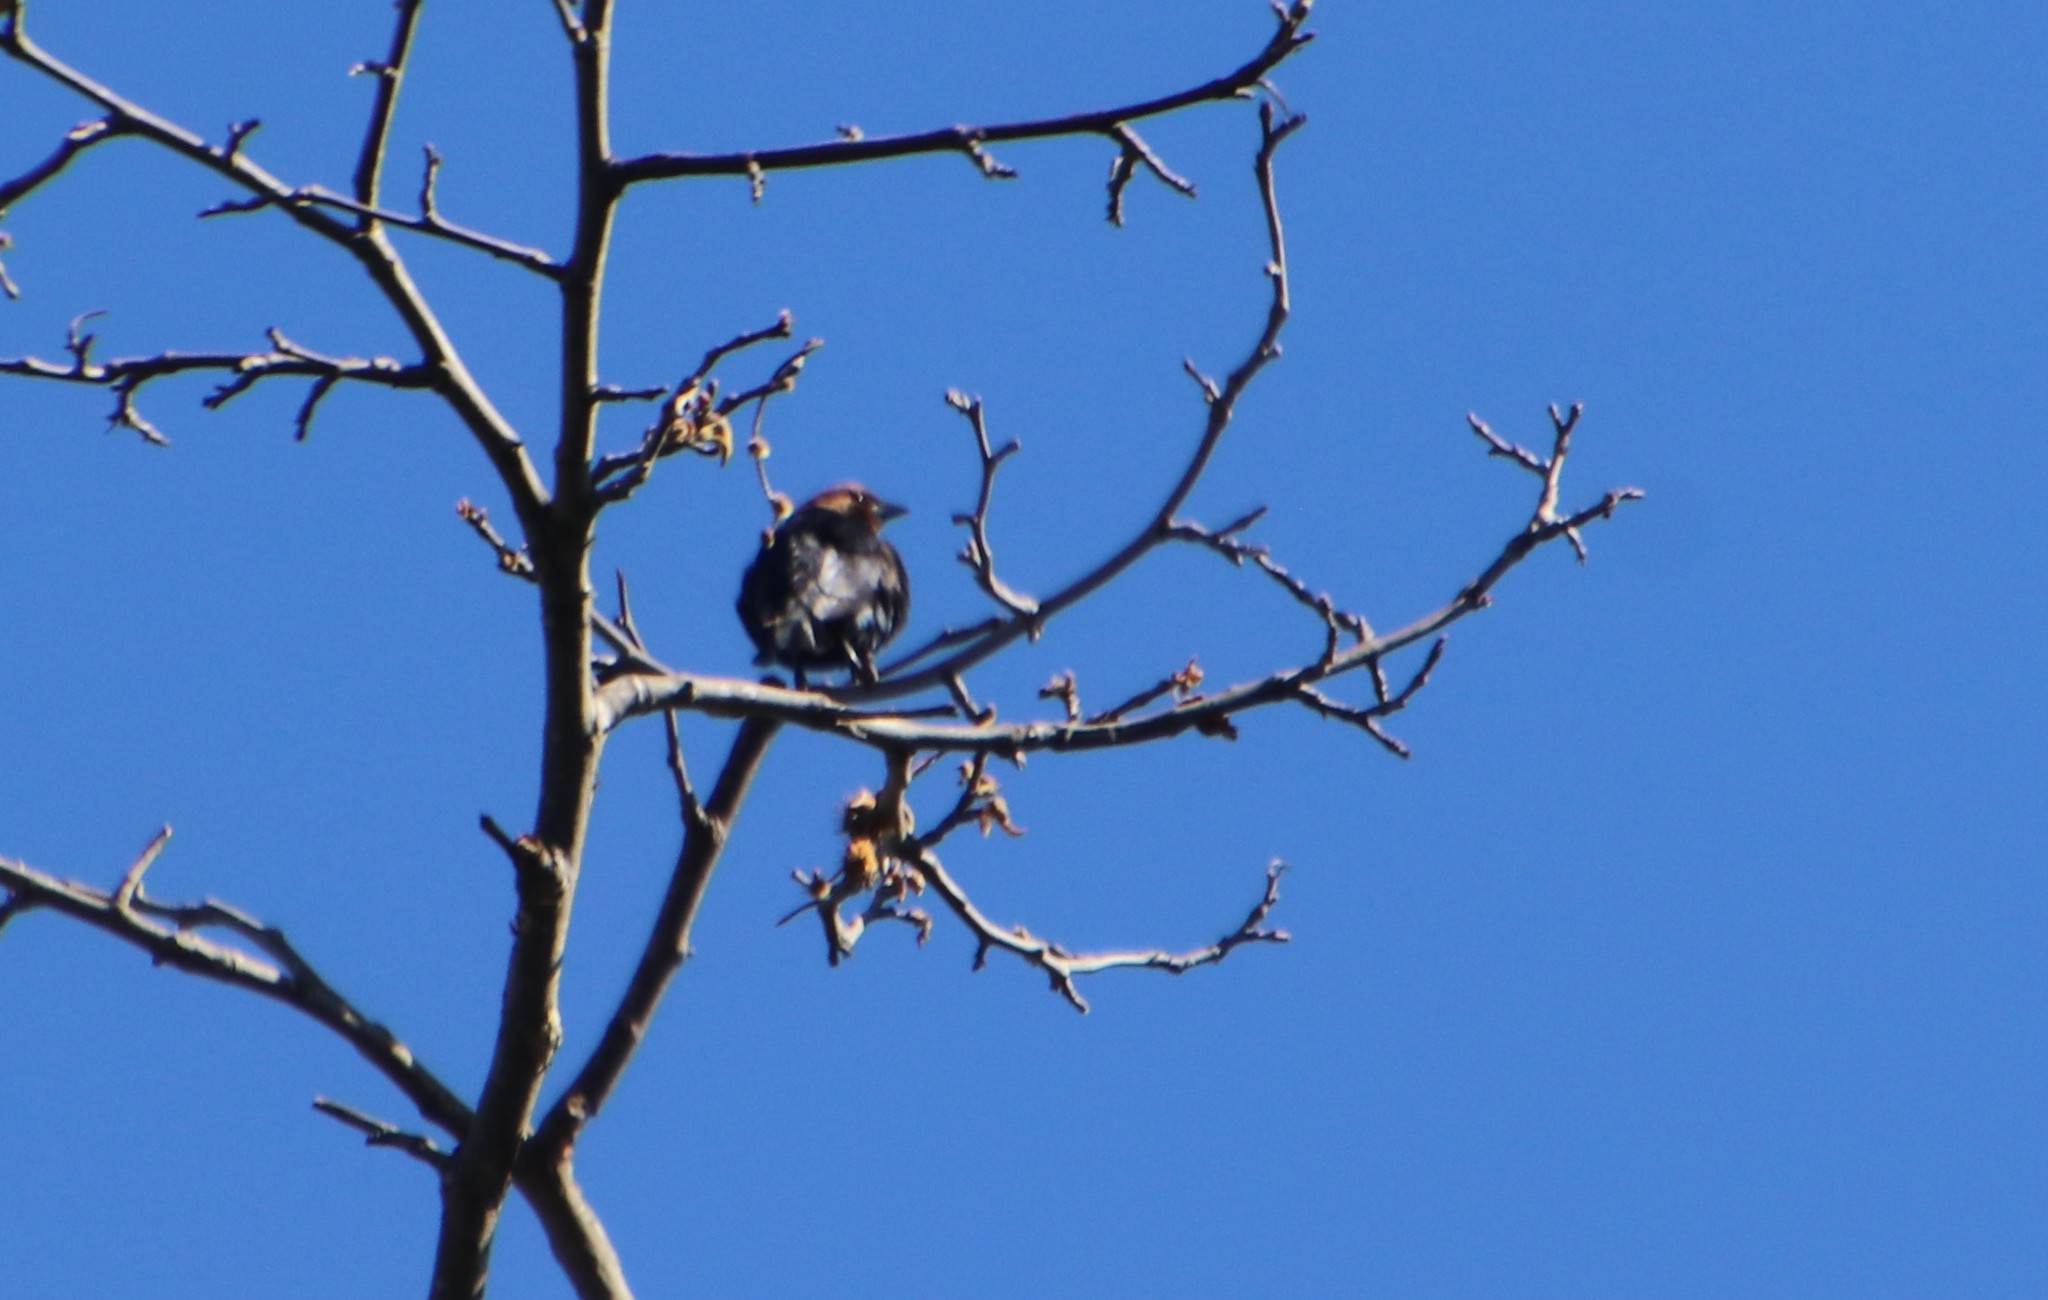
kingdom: Animalia
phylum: Chordata
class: Aves
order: Passeriformes
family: Icteridae
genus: Molothrus
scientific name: Molothrus ater
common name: Brown-headed cowbird
